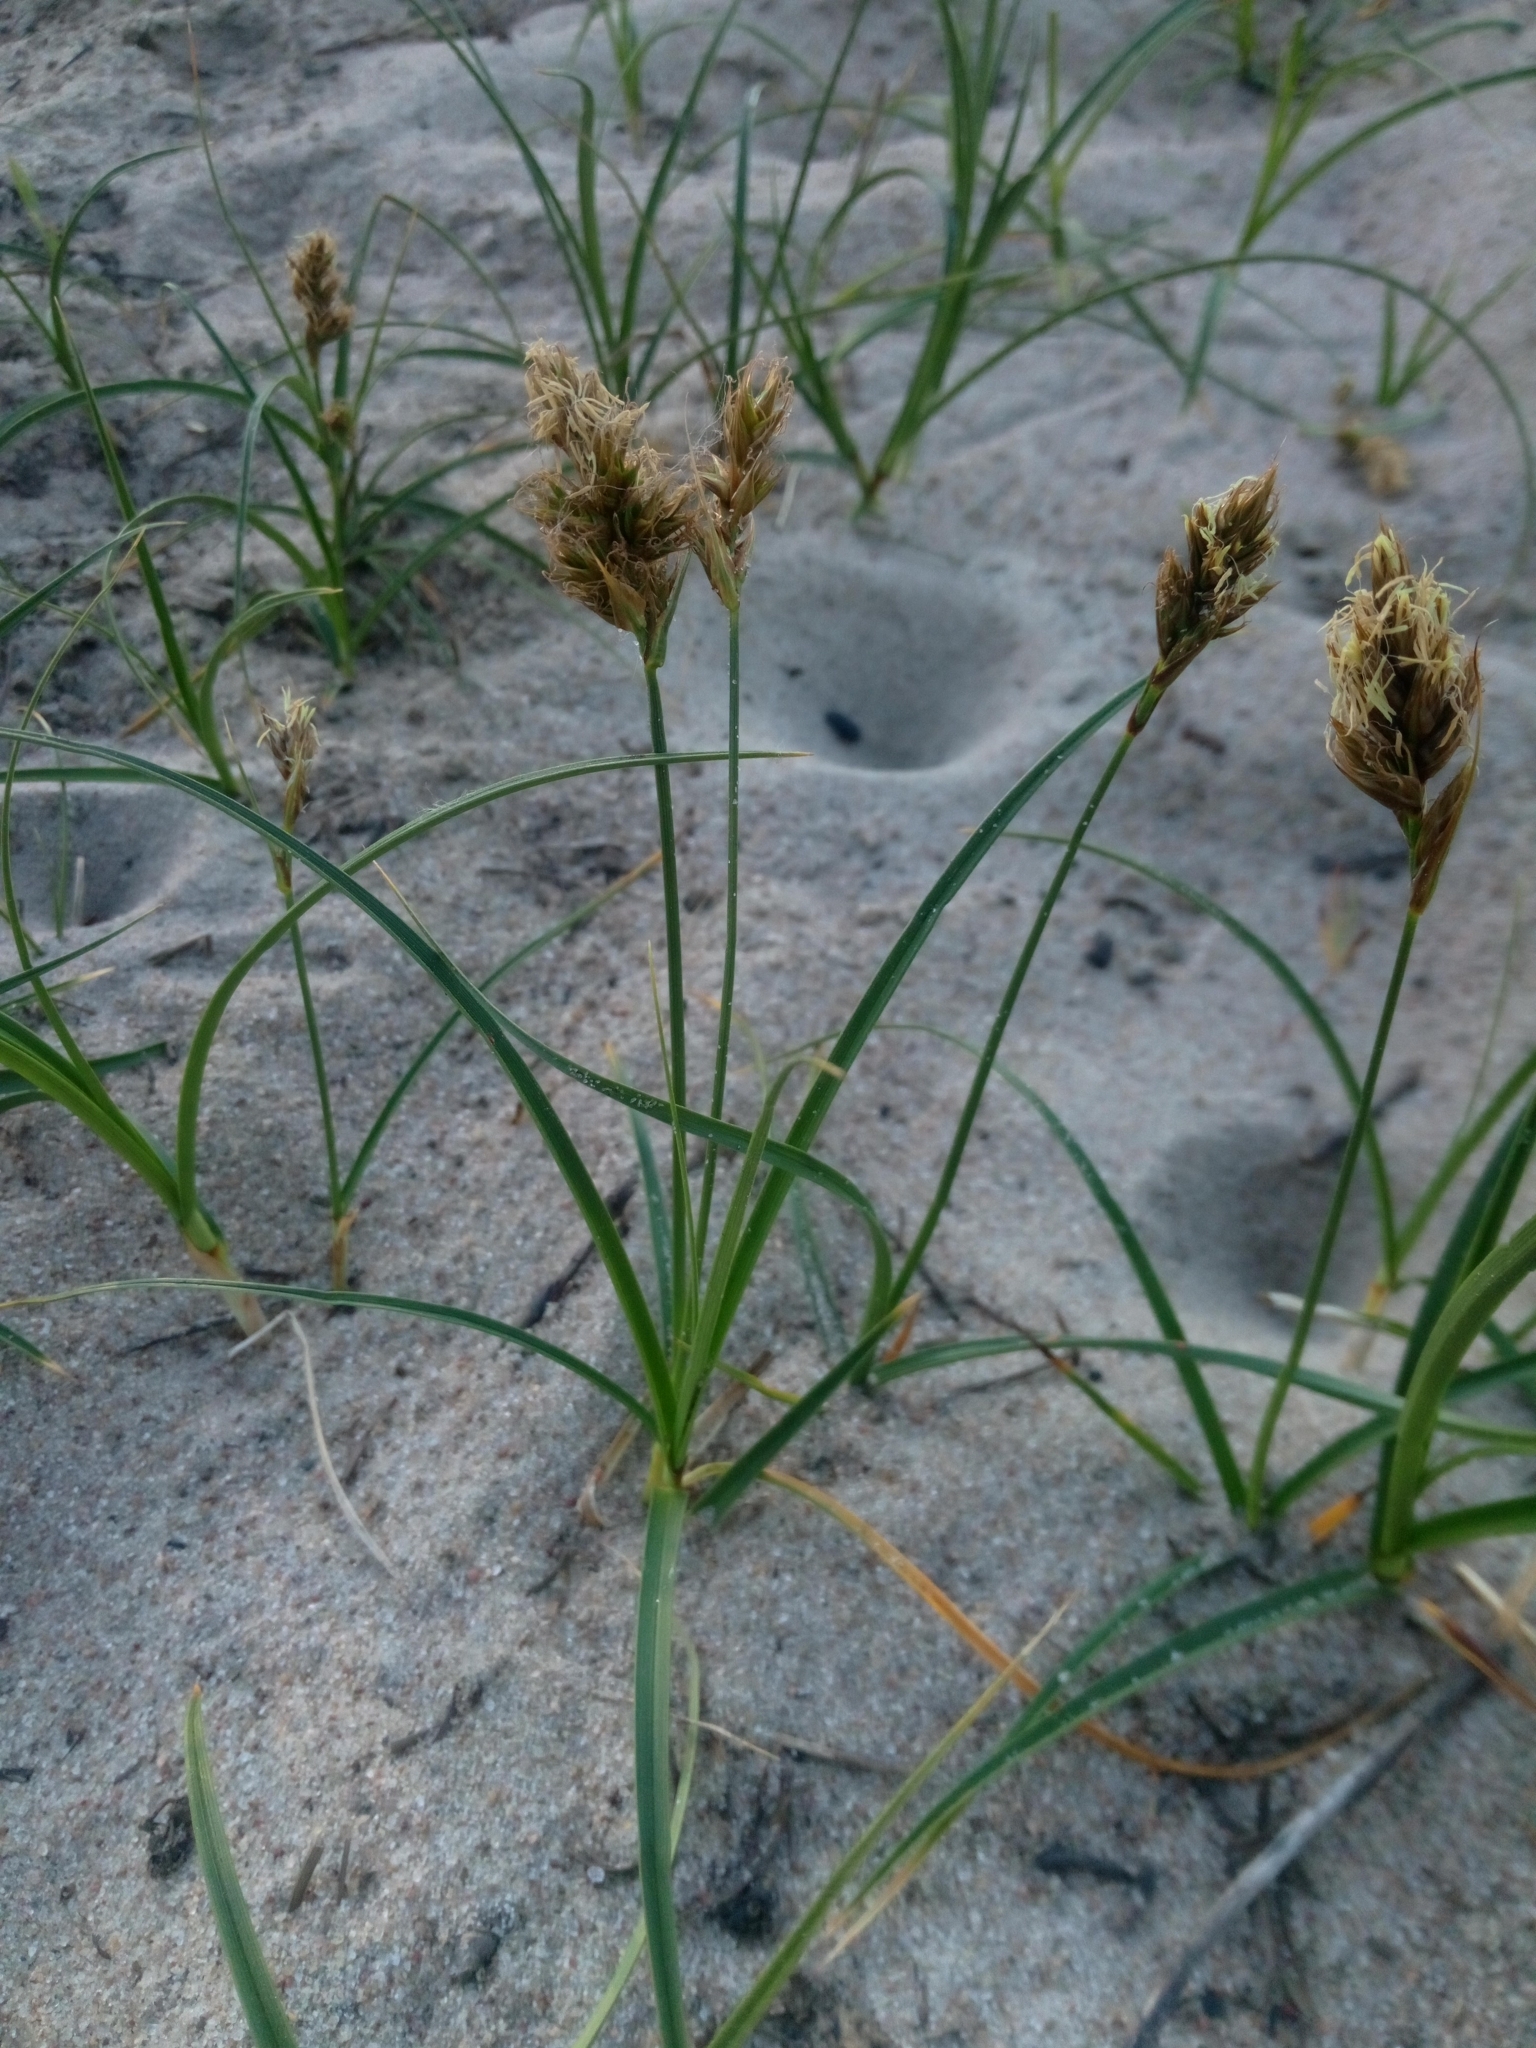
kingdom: Plantae
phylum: Tracheophyta
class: Liliopsida
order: Poales
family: Cyperaceae
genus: Carex
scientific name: Carex arenaria
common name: Sand sedge
